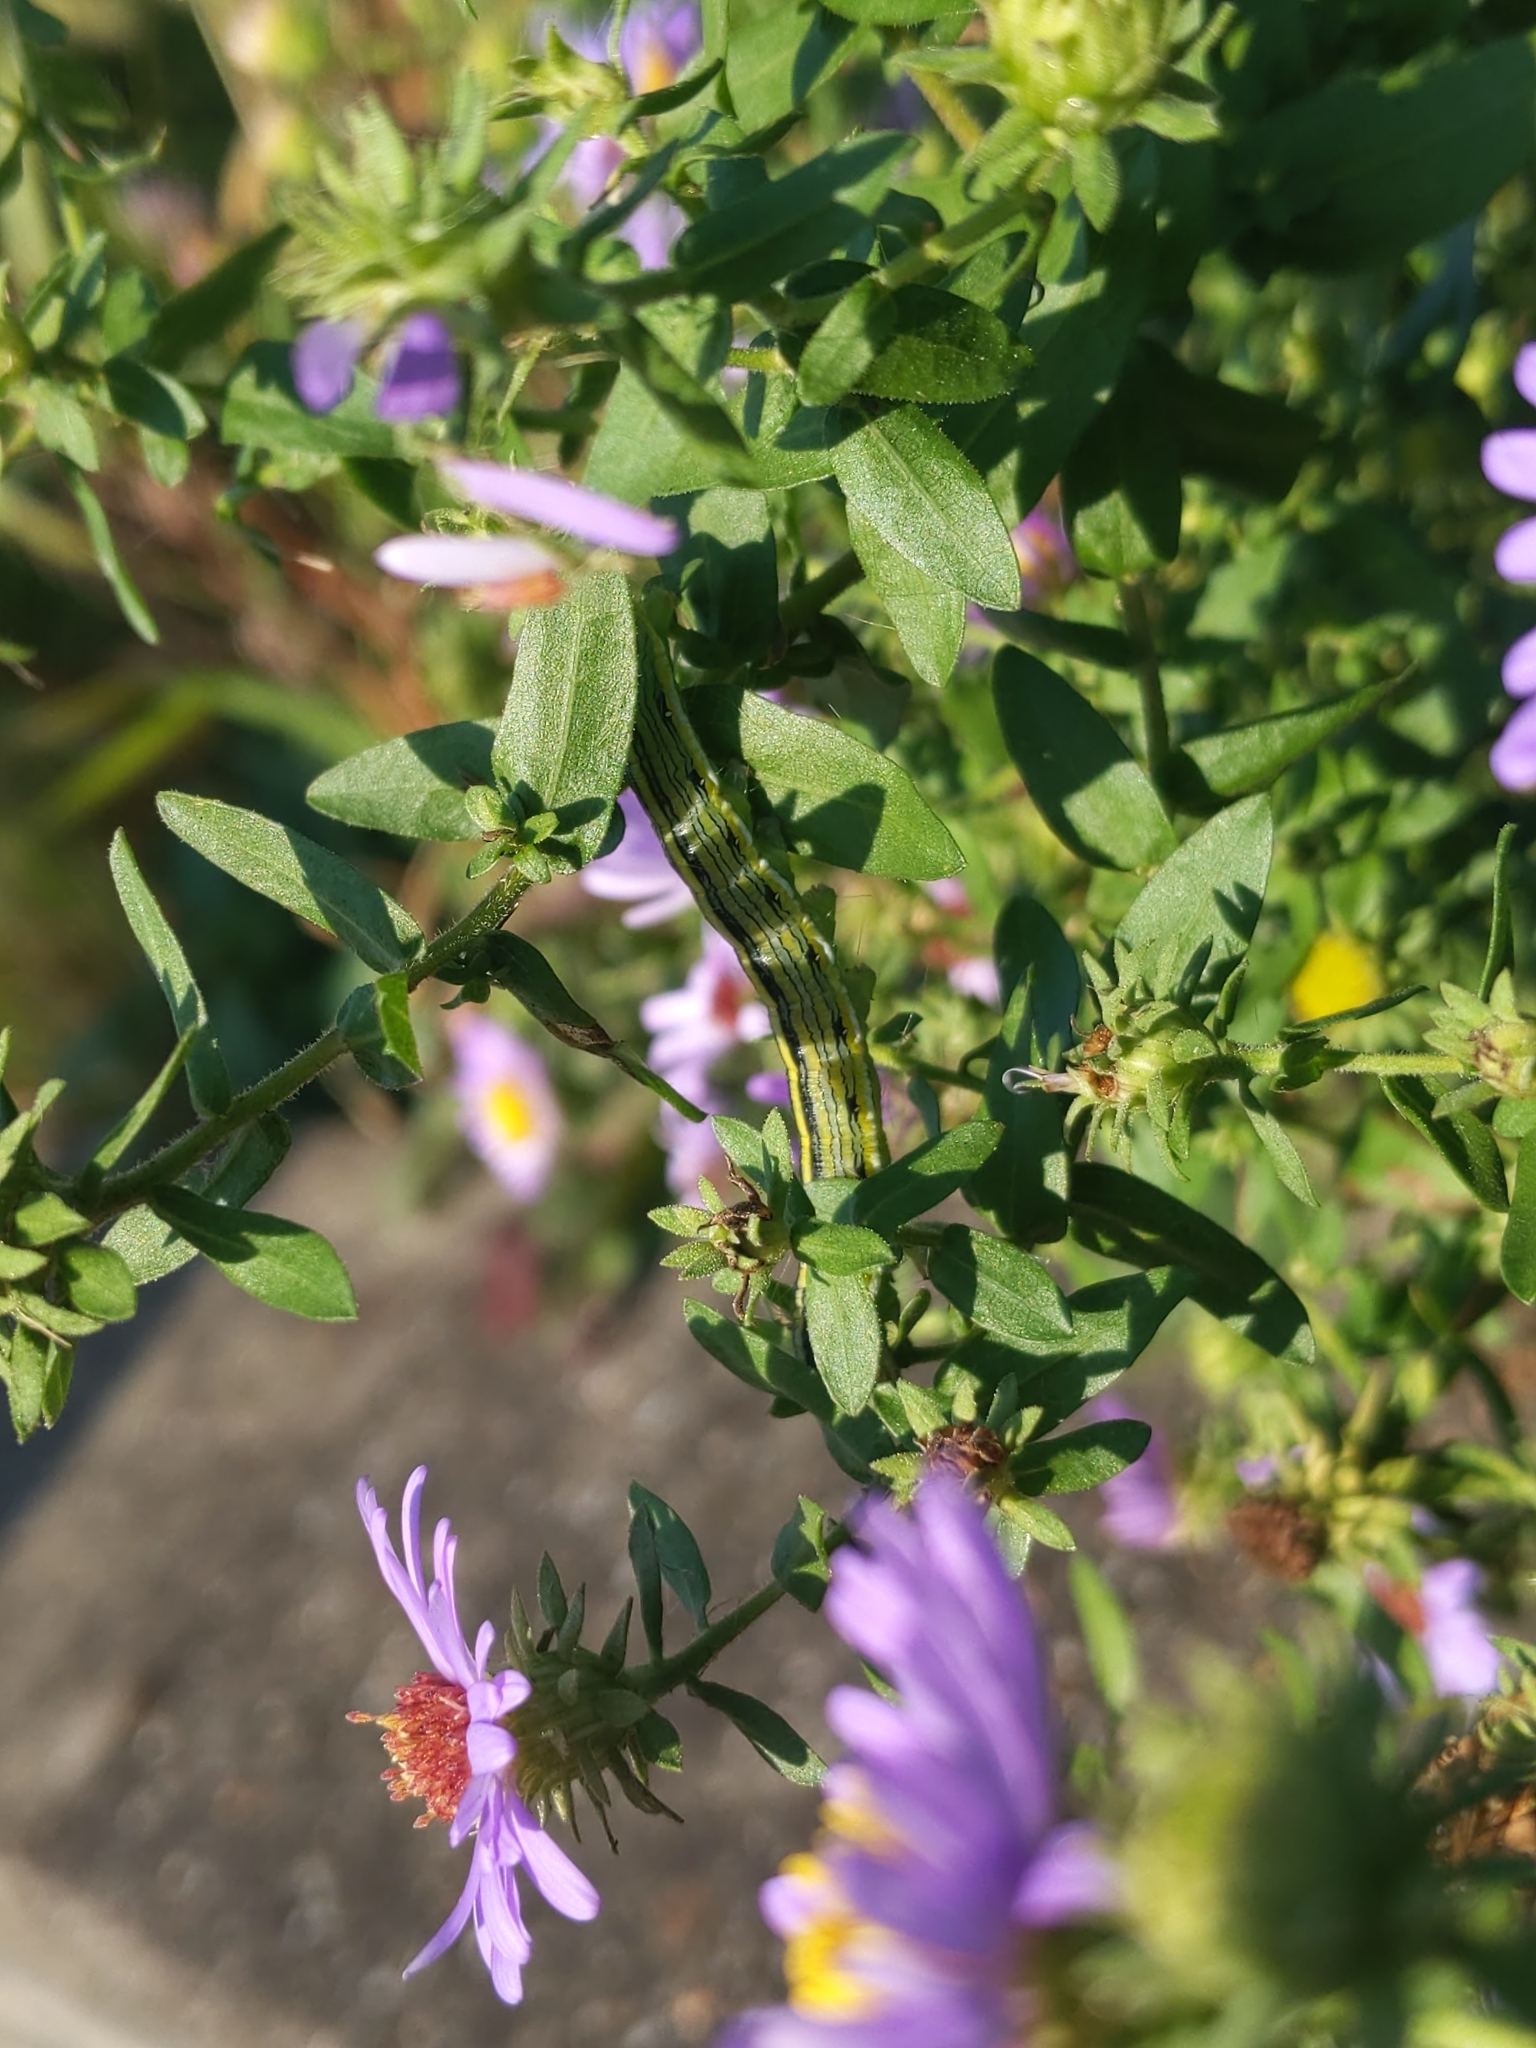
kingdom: Animalia
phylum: Arthropoda
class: Insecta
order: Lepidoptera
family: Noctuidae
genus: Cucullia
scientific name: Cucullia asteroides
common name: Asteroid moth
